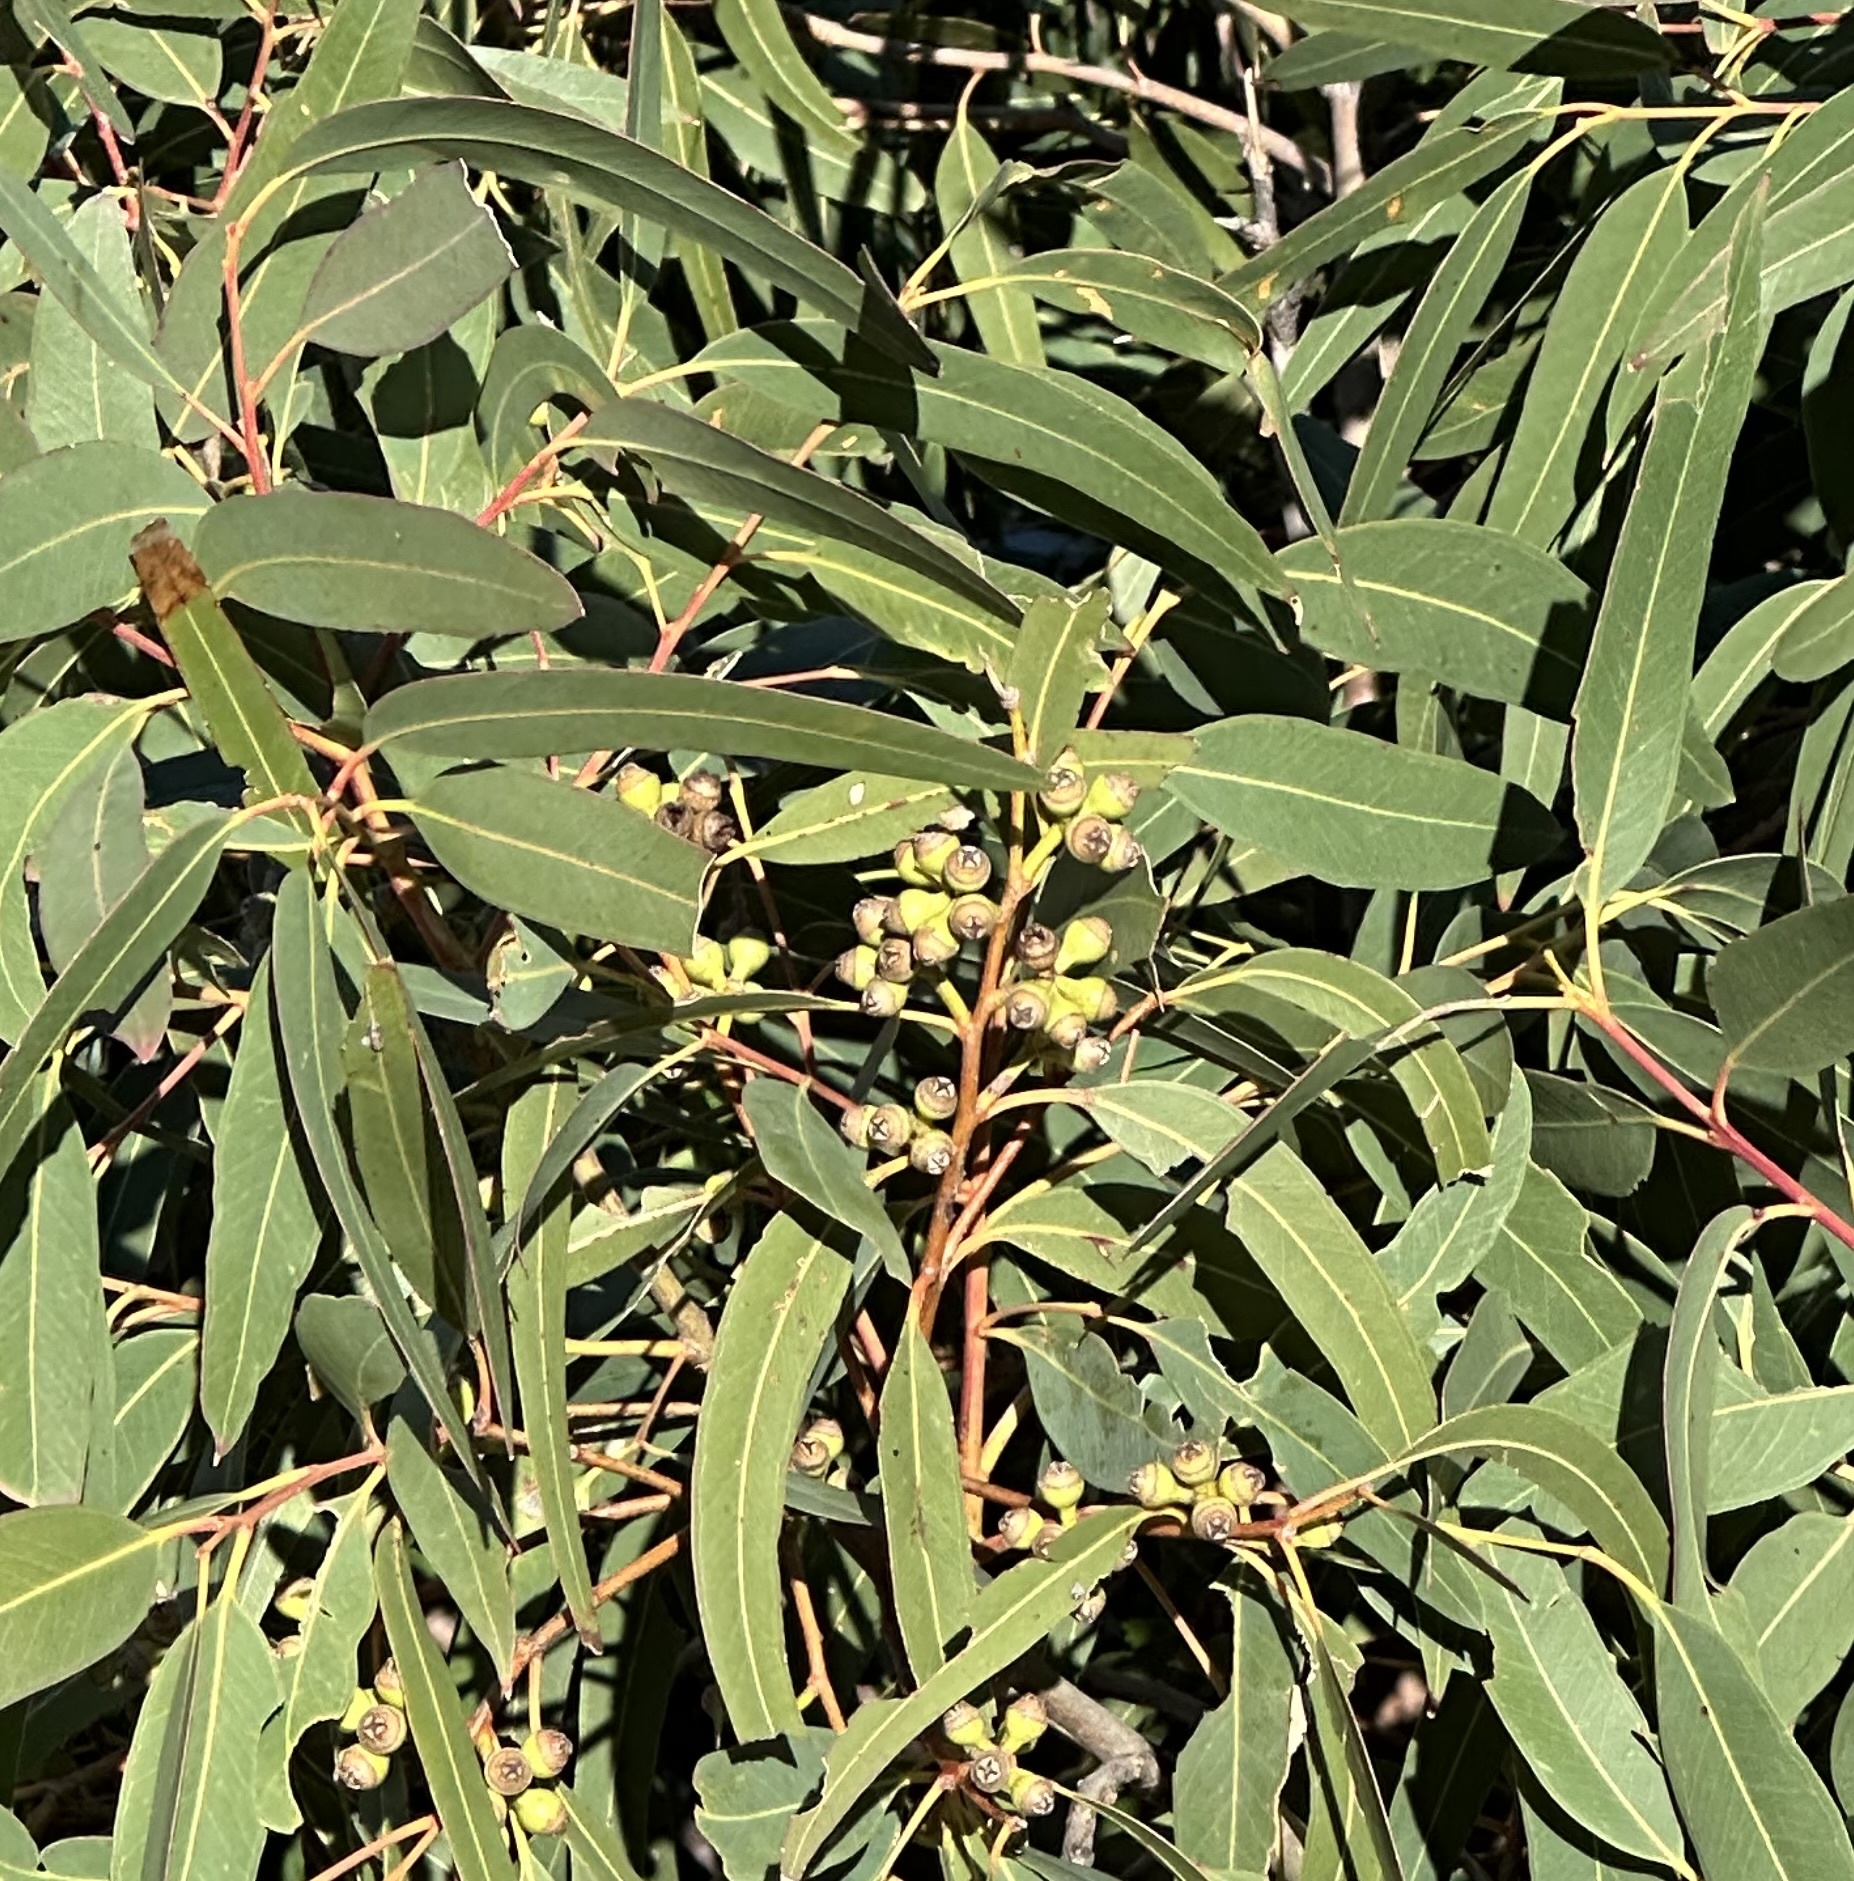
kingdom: Plantae
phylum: Tracheophyta
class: Magnoliopsida
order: Myrtales
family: Myrtaceae
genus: Eucalyptus
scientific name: Eucalyptus exserta
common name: Peppermint-bendo
